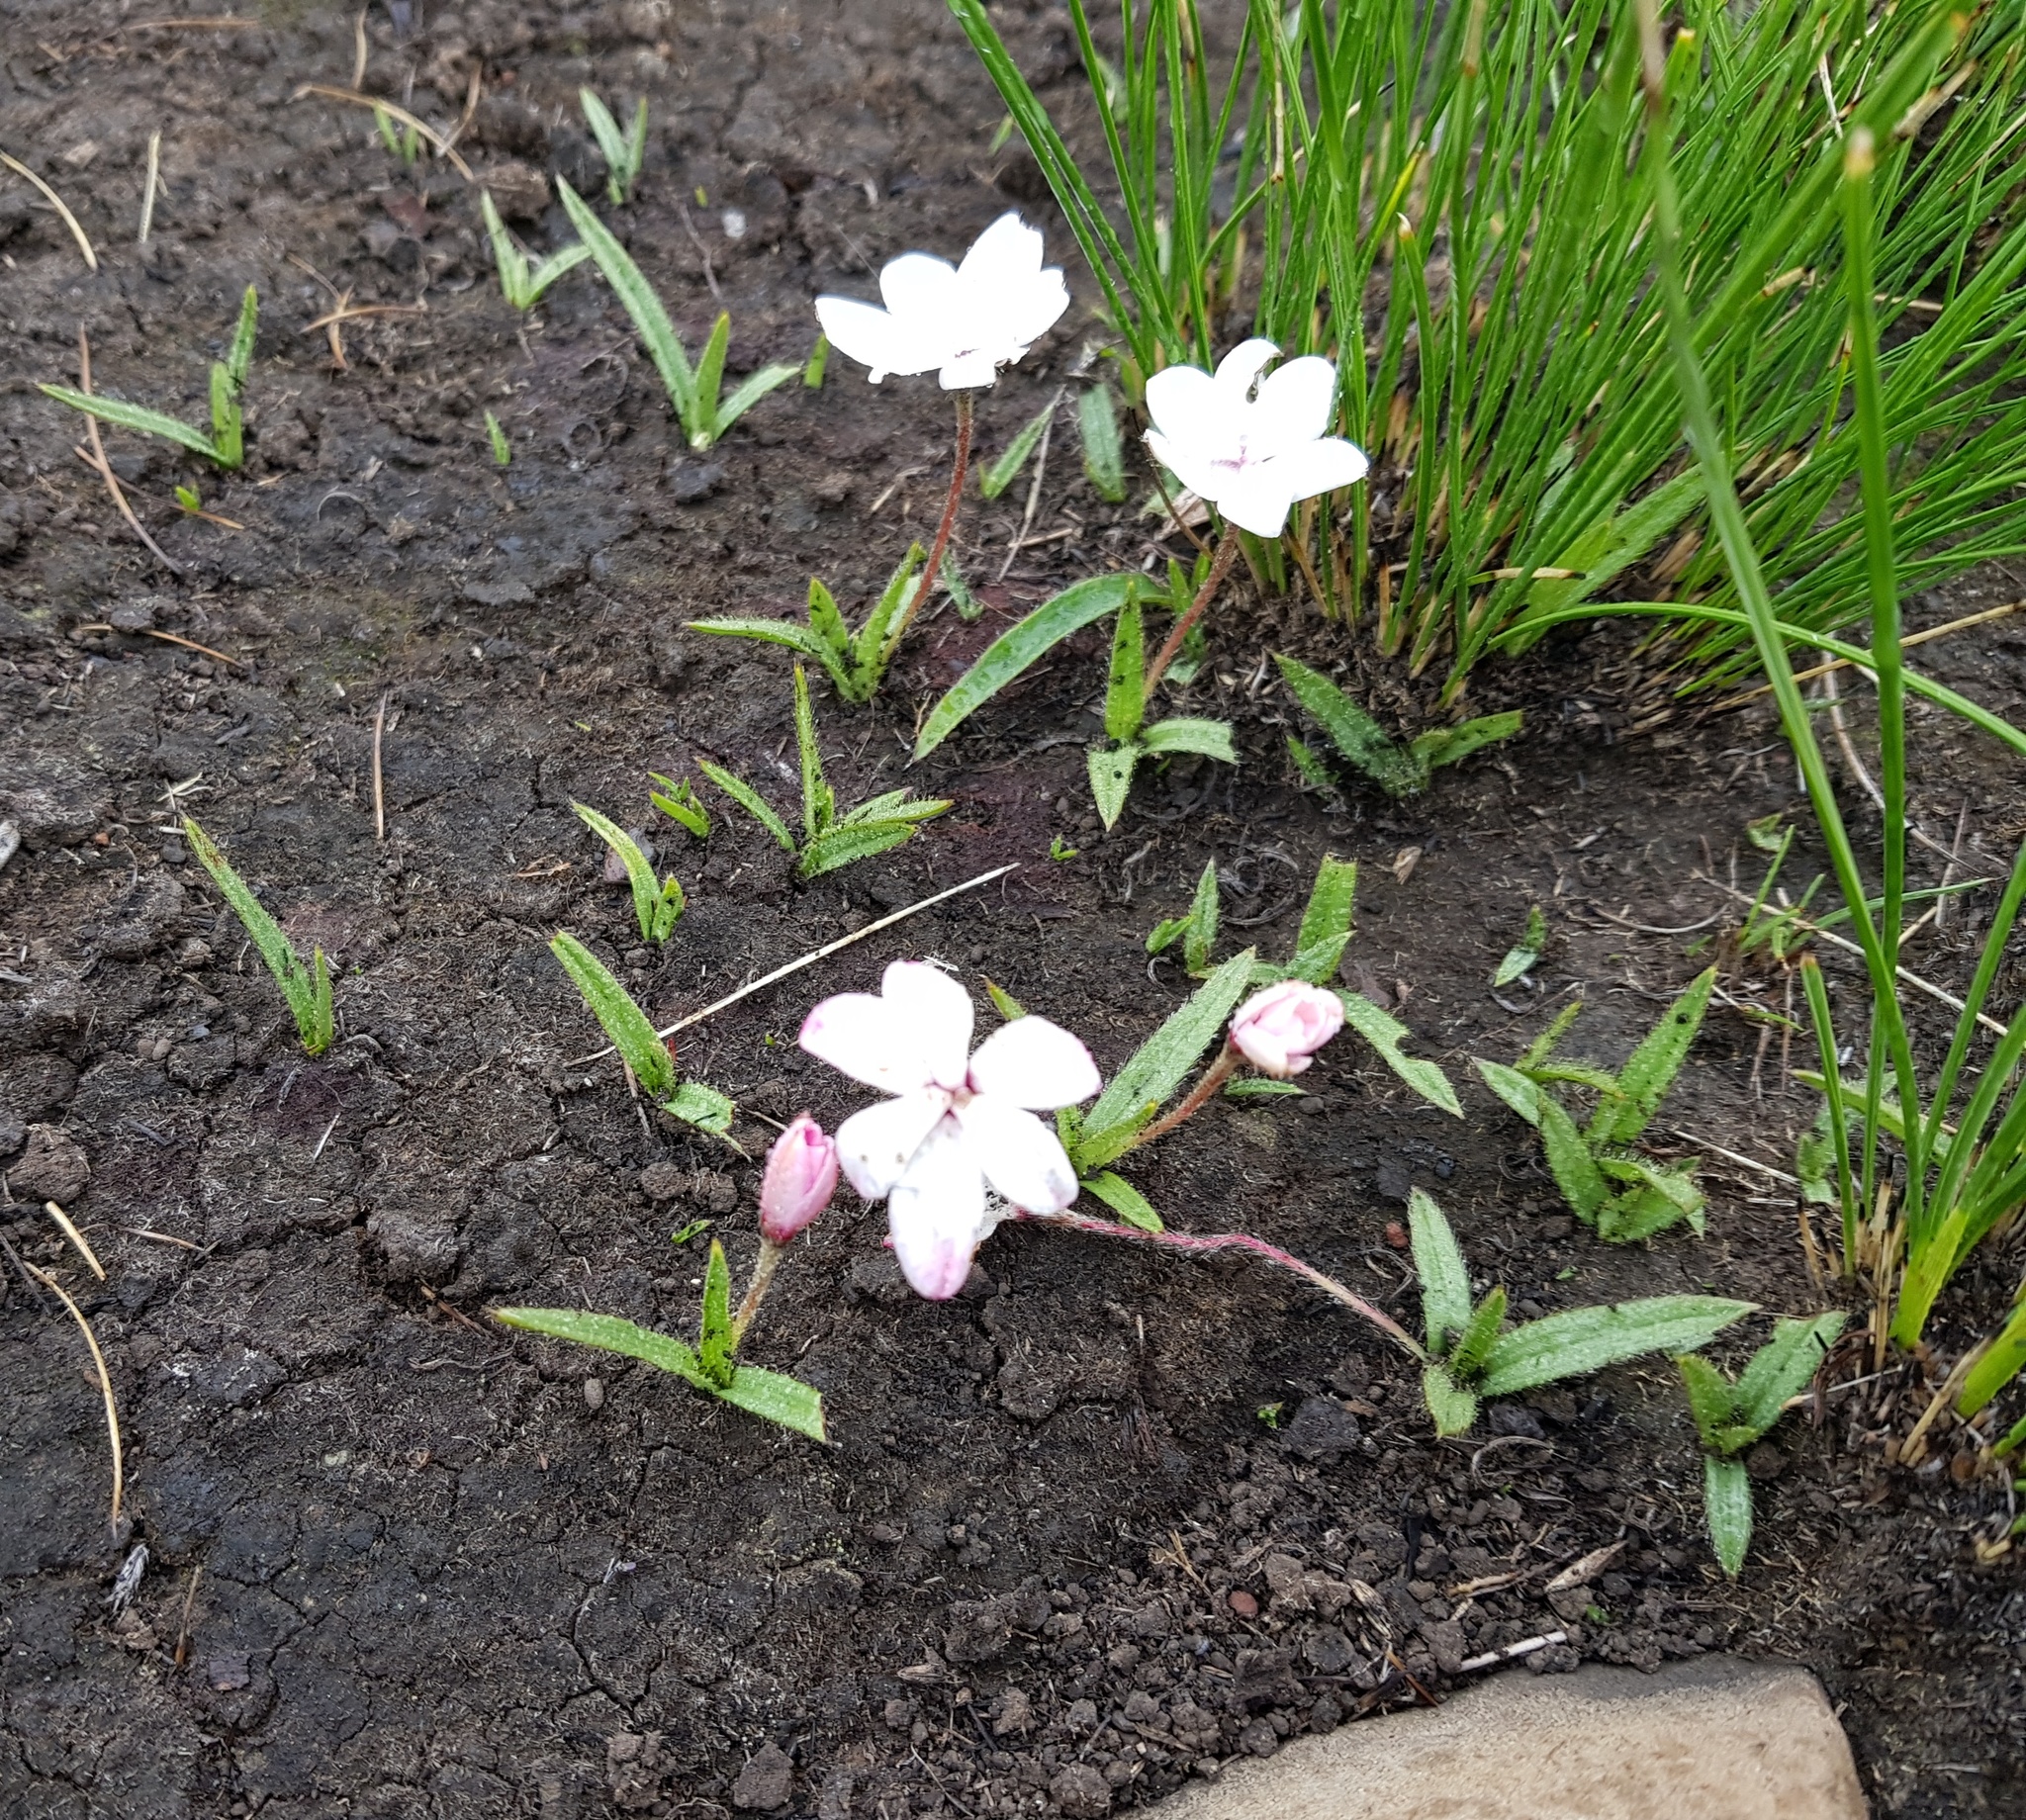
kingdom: Plantae
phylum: Tracheophyta
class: Liliopsida
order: Asparagales
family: Hypoxidaceae
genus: Hypoxis
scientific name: Hypoxis baurii
